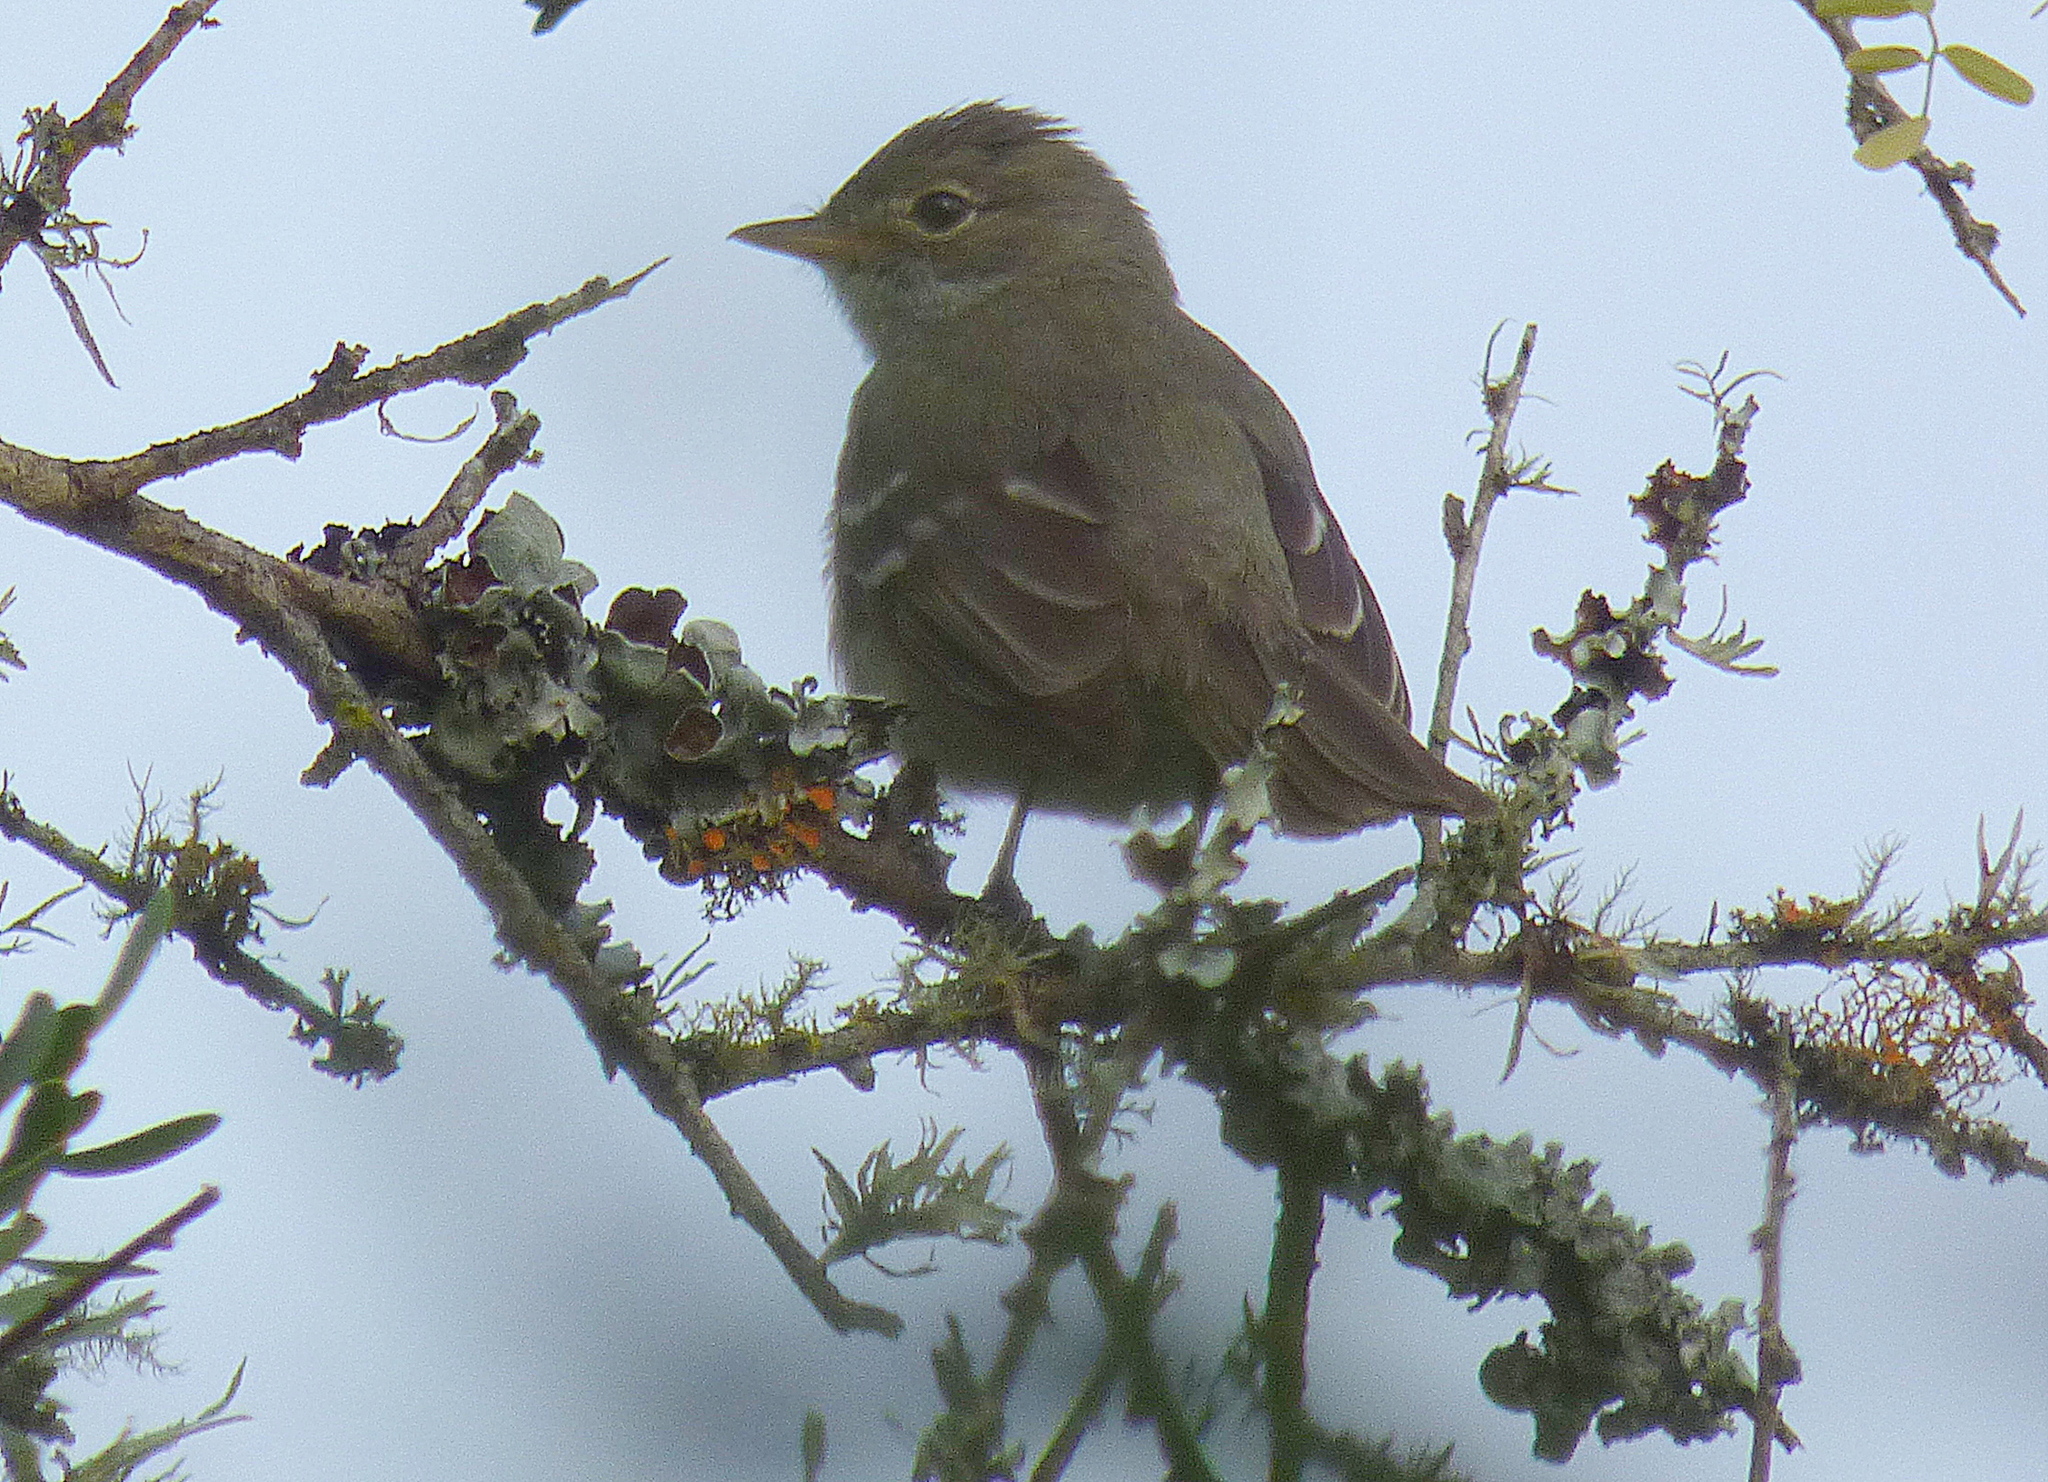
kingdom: Animalia
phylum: Chordata
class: Aves
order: Passeriformes
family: Tyrannidae
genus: Elaenia
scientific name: Elaenia albiceps
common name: White-crested elaenia
